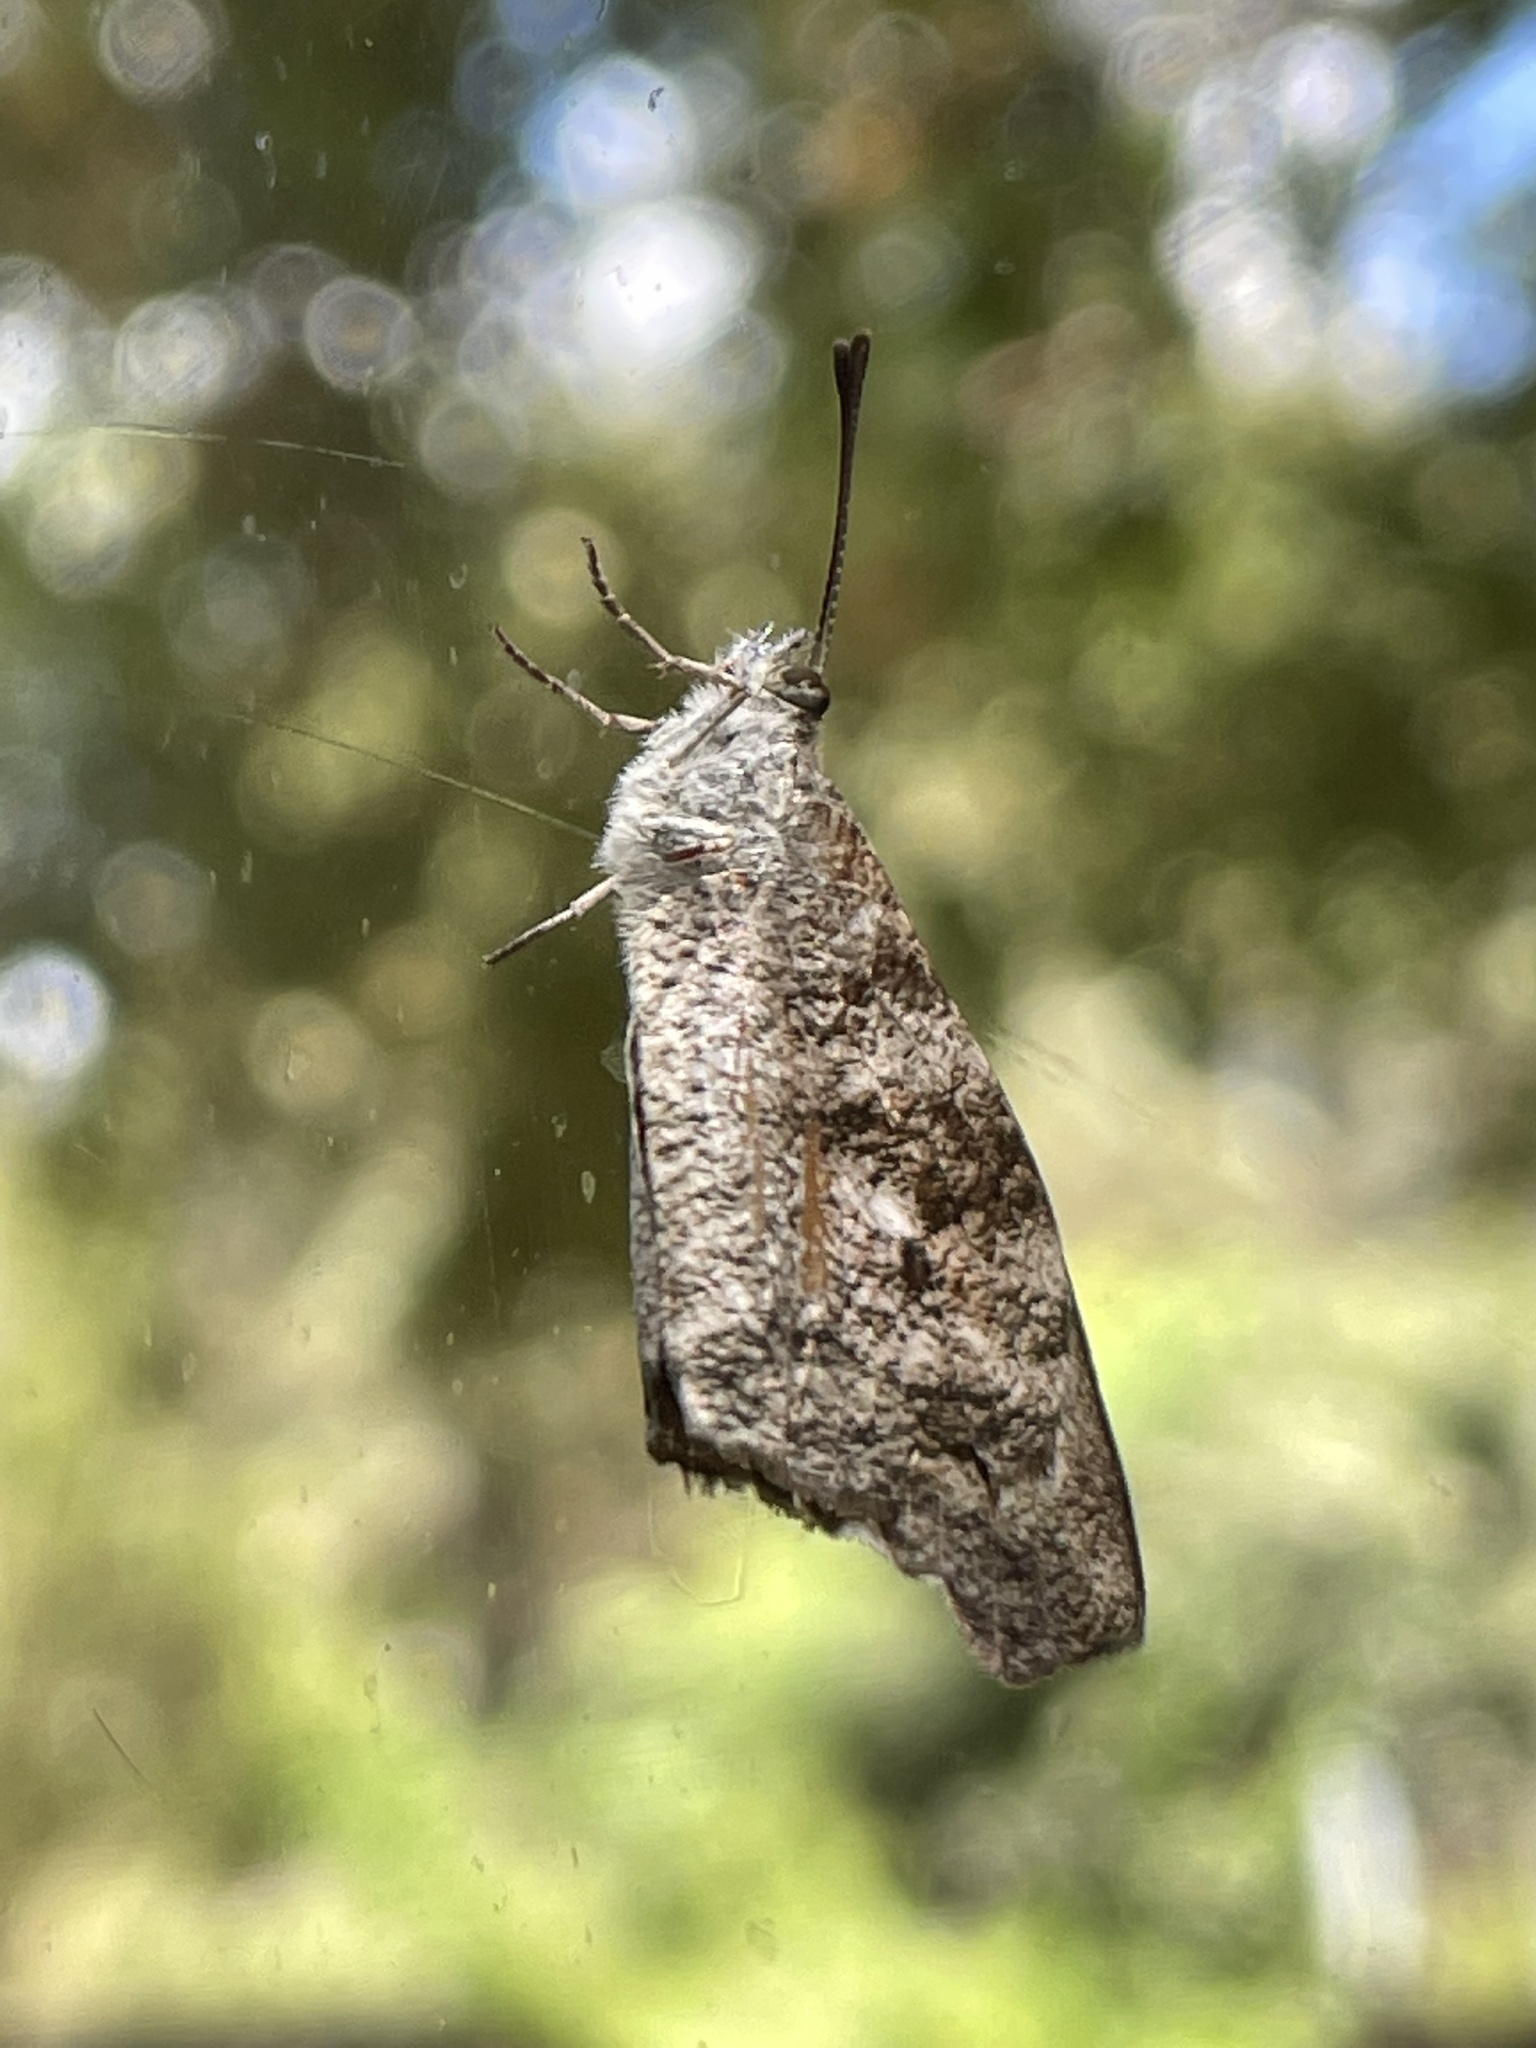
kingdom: Animalia
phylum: Arthropoda
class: Insecta
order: Lepidoptera
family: Nymphalidae
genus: Libytheana
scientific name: Libytheana carinenta
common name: American snout
